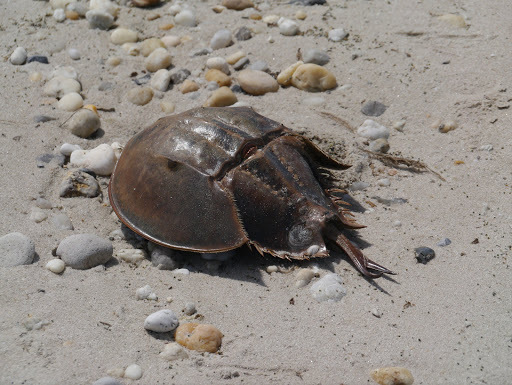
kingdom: Animalia
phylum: Arthropoda
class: Merostomata
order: Xiphosurida
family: Limulidae
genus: Limulus
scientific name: Limulus polyphemus
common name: Horseshoe crab
